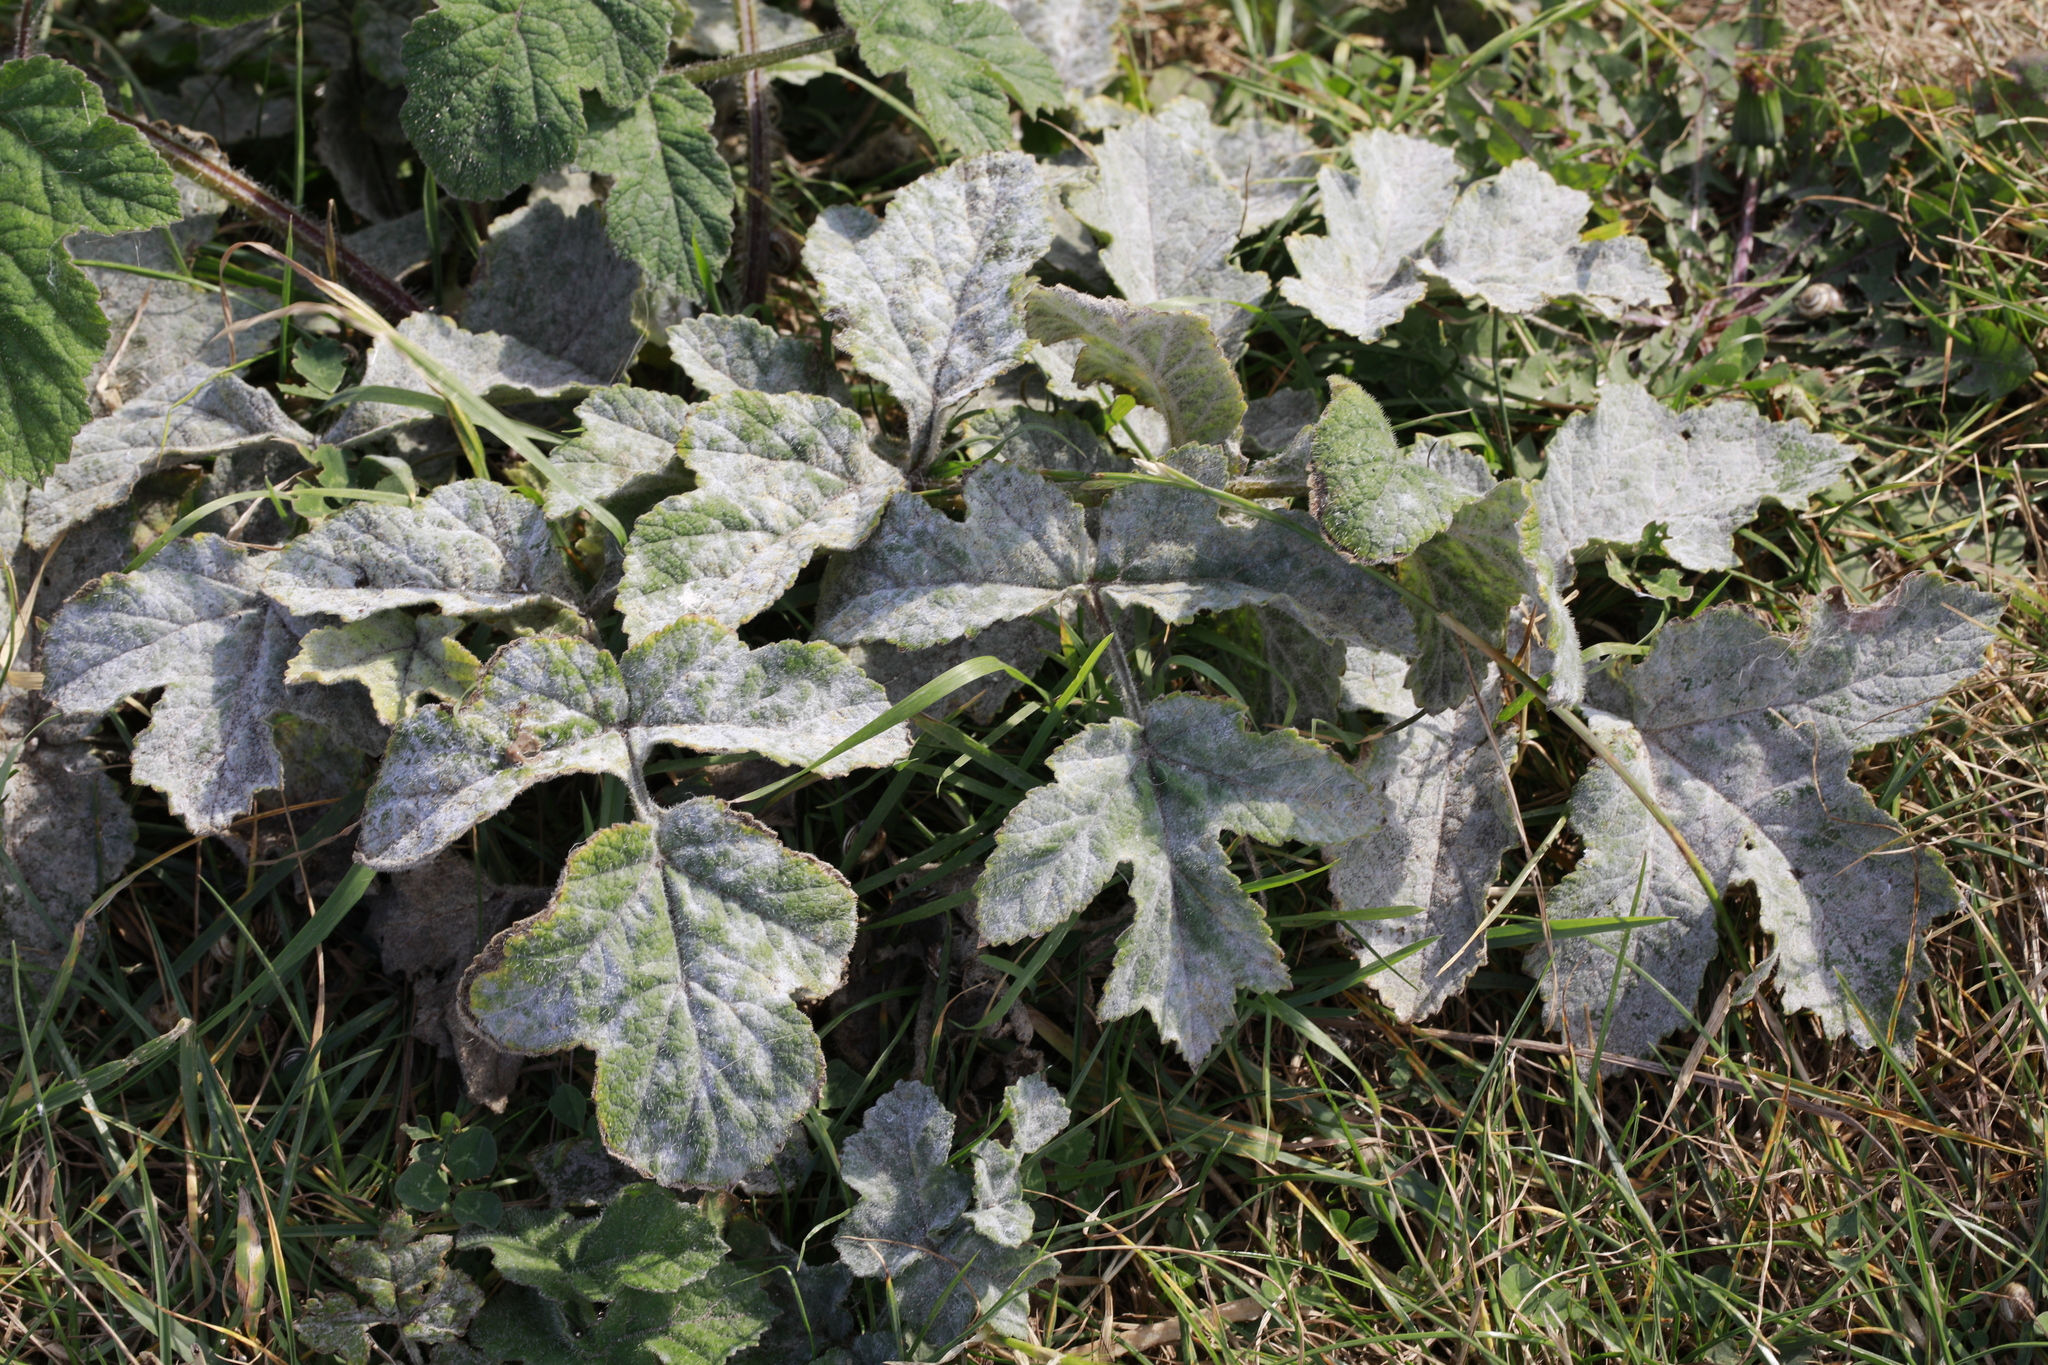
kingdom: Fungi
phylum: Ascomycota
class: Leotiomycetes
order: Helotiales
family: Erysiphaceae
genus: Erysiphe
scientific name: Erysiphe heraclei
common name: Umbellifer mildew
